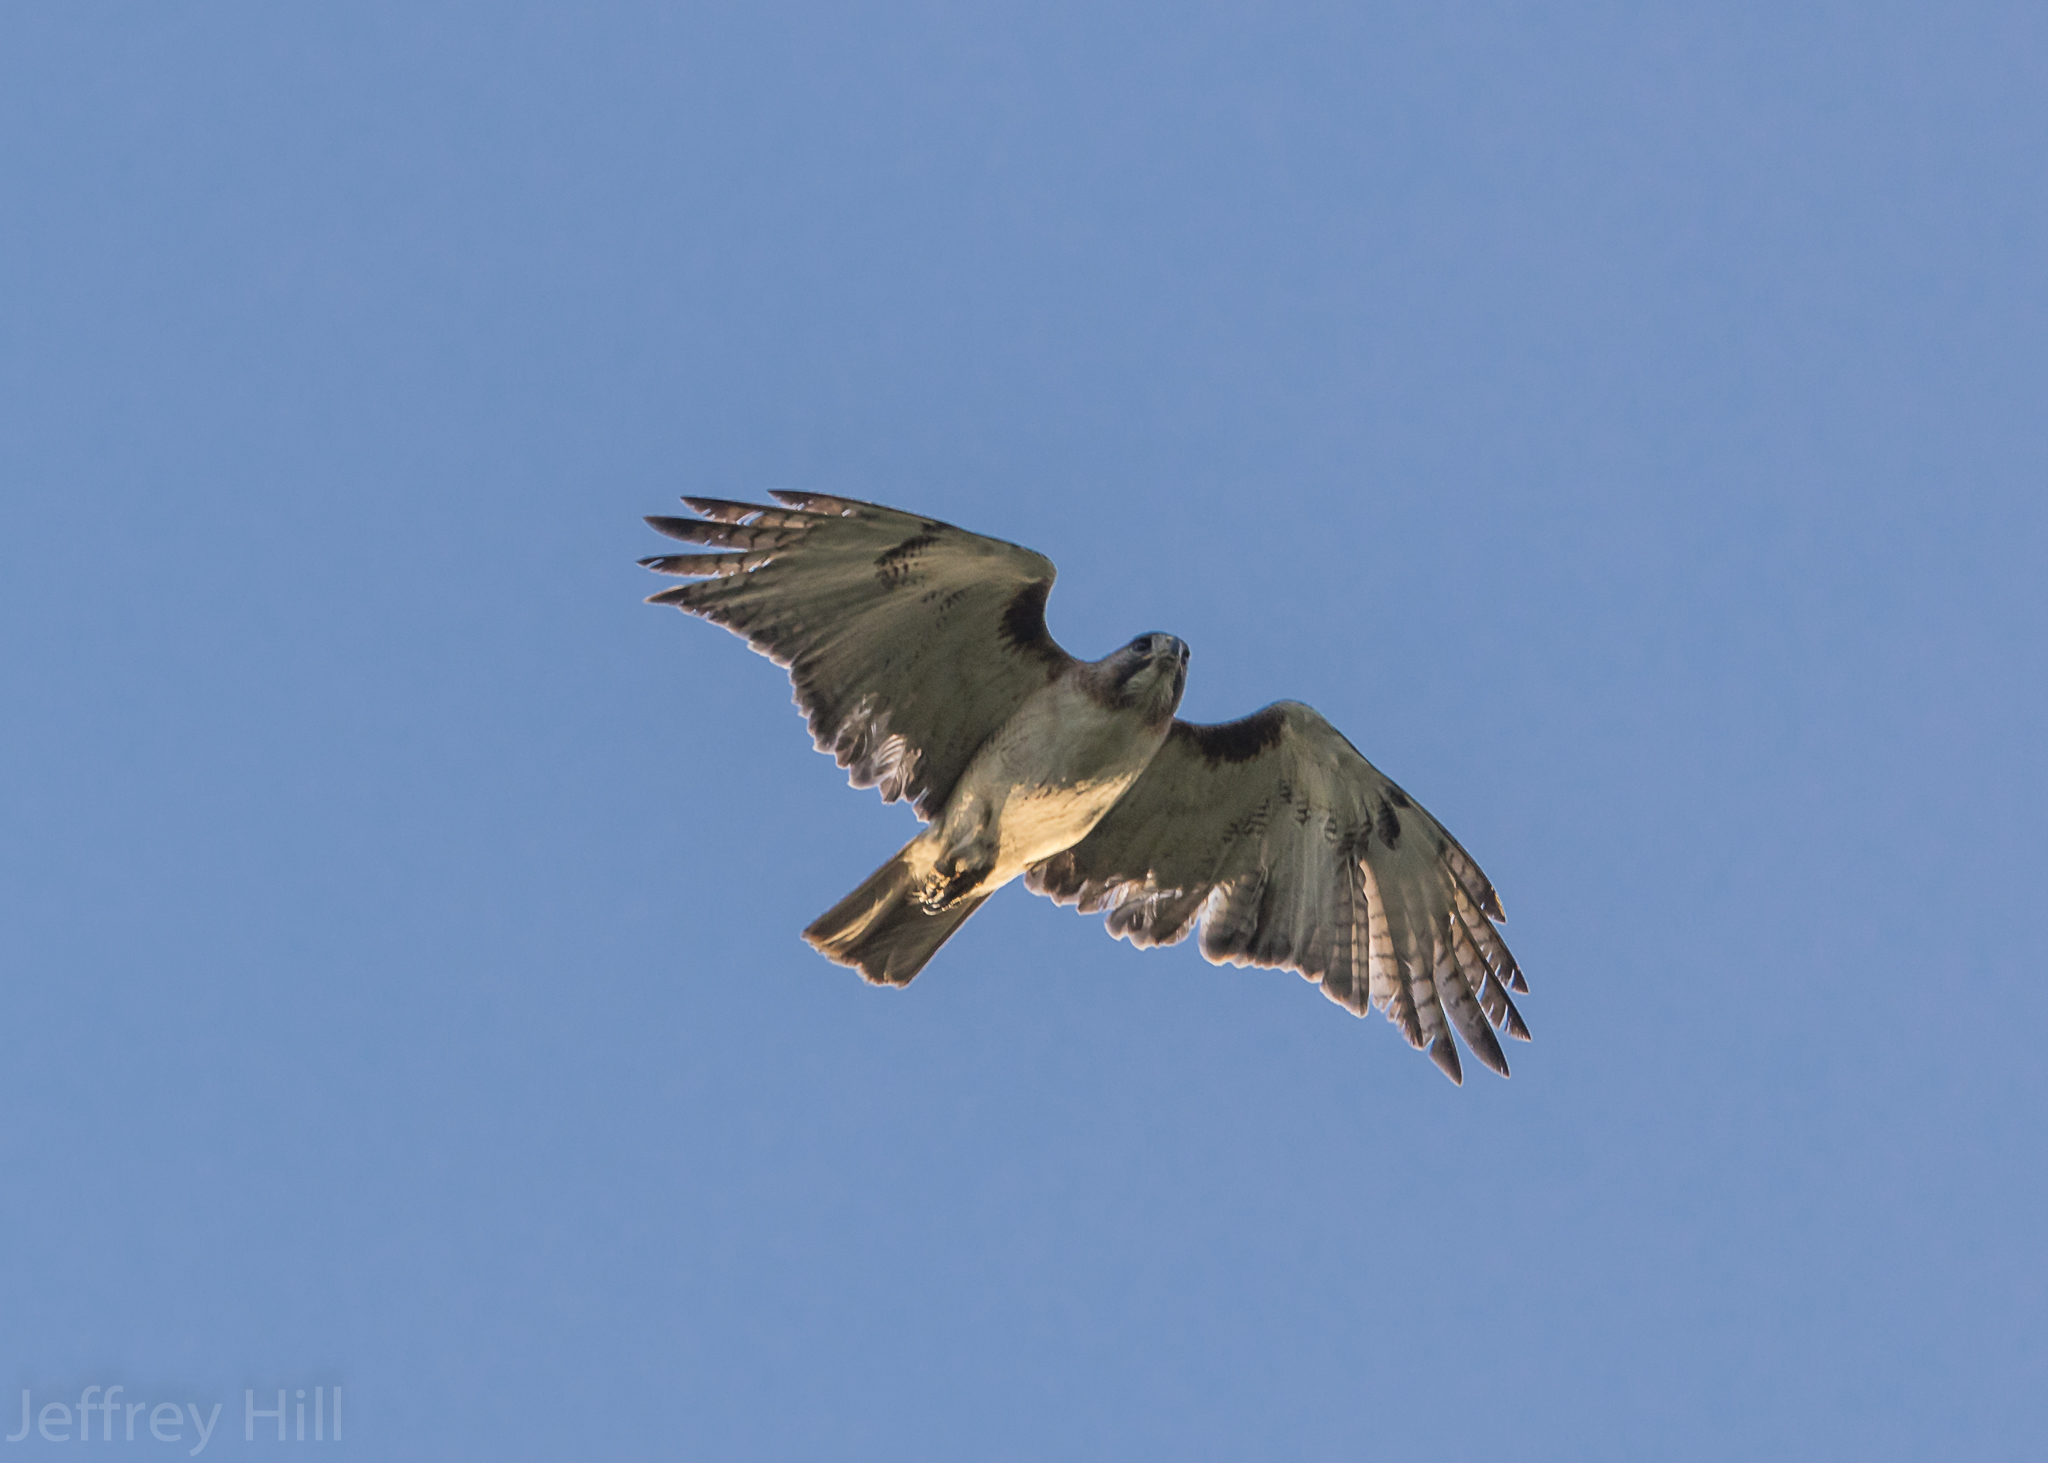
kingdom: Animalia
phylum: Chordata
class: Aves
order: Accipitriformes
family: Accipitridae
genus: Buteo
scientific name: Buteo jamaicensis
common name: Red-tailed hawk
